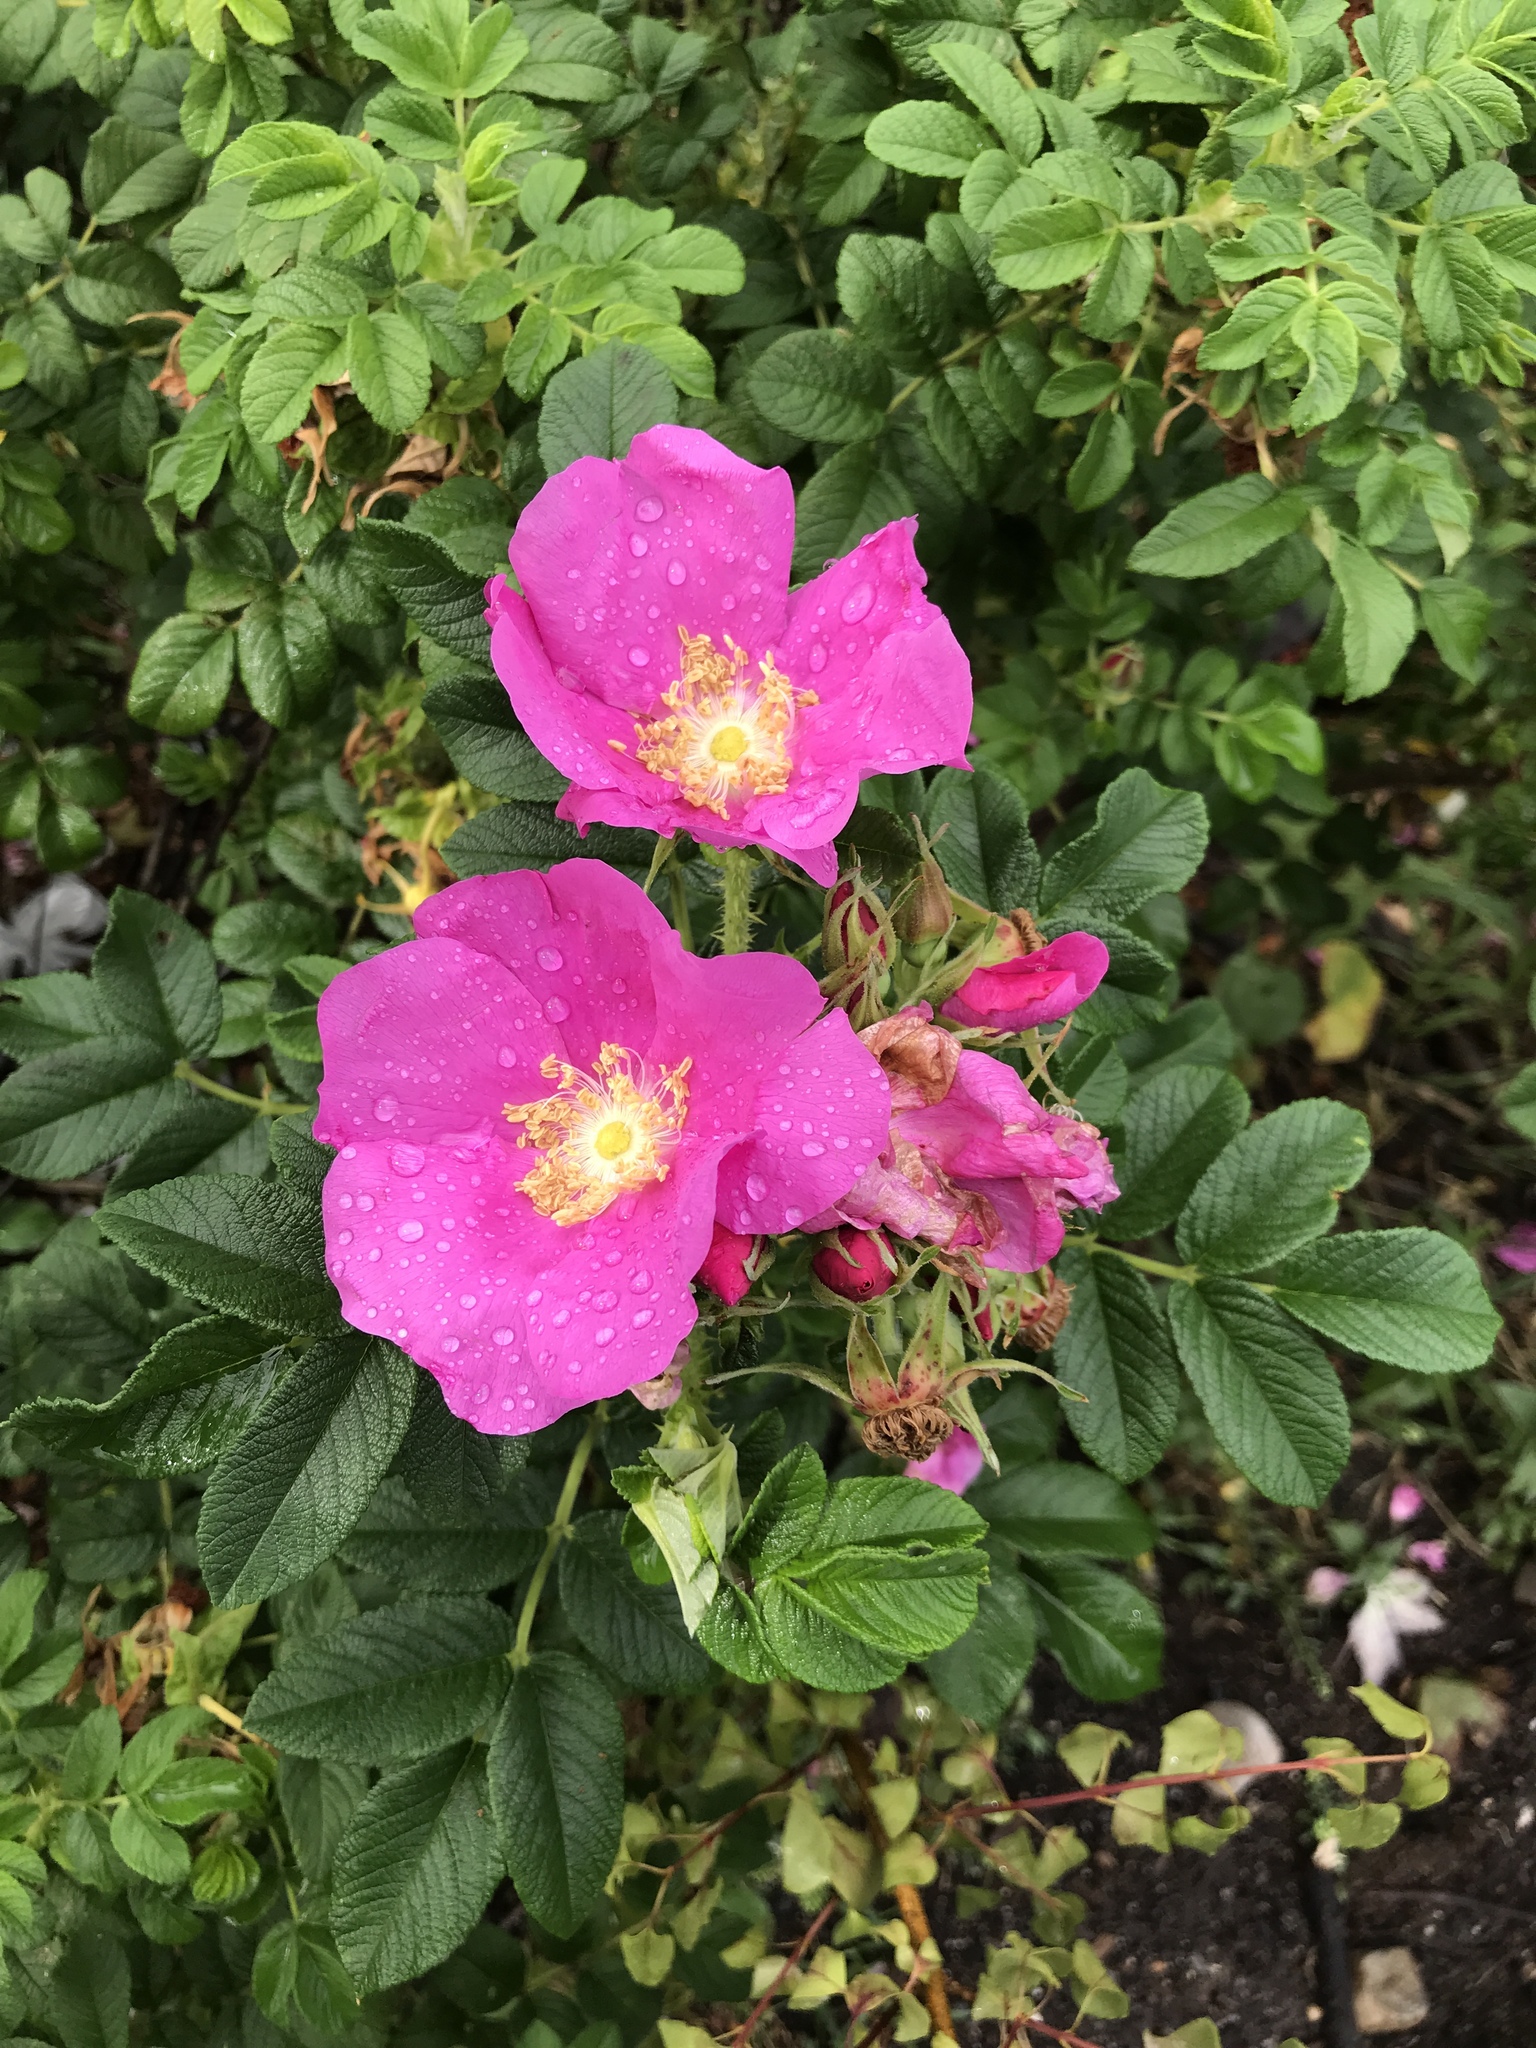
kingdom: Plantae
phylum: Tracheophyta
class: Magnoliopsida
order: Rosales
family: Rosaceae
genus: Rosa
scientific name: Rosa rugosa
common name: Japanese rose
